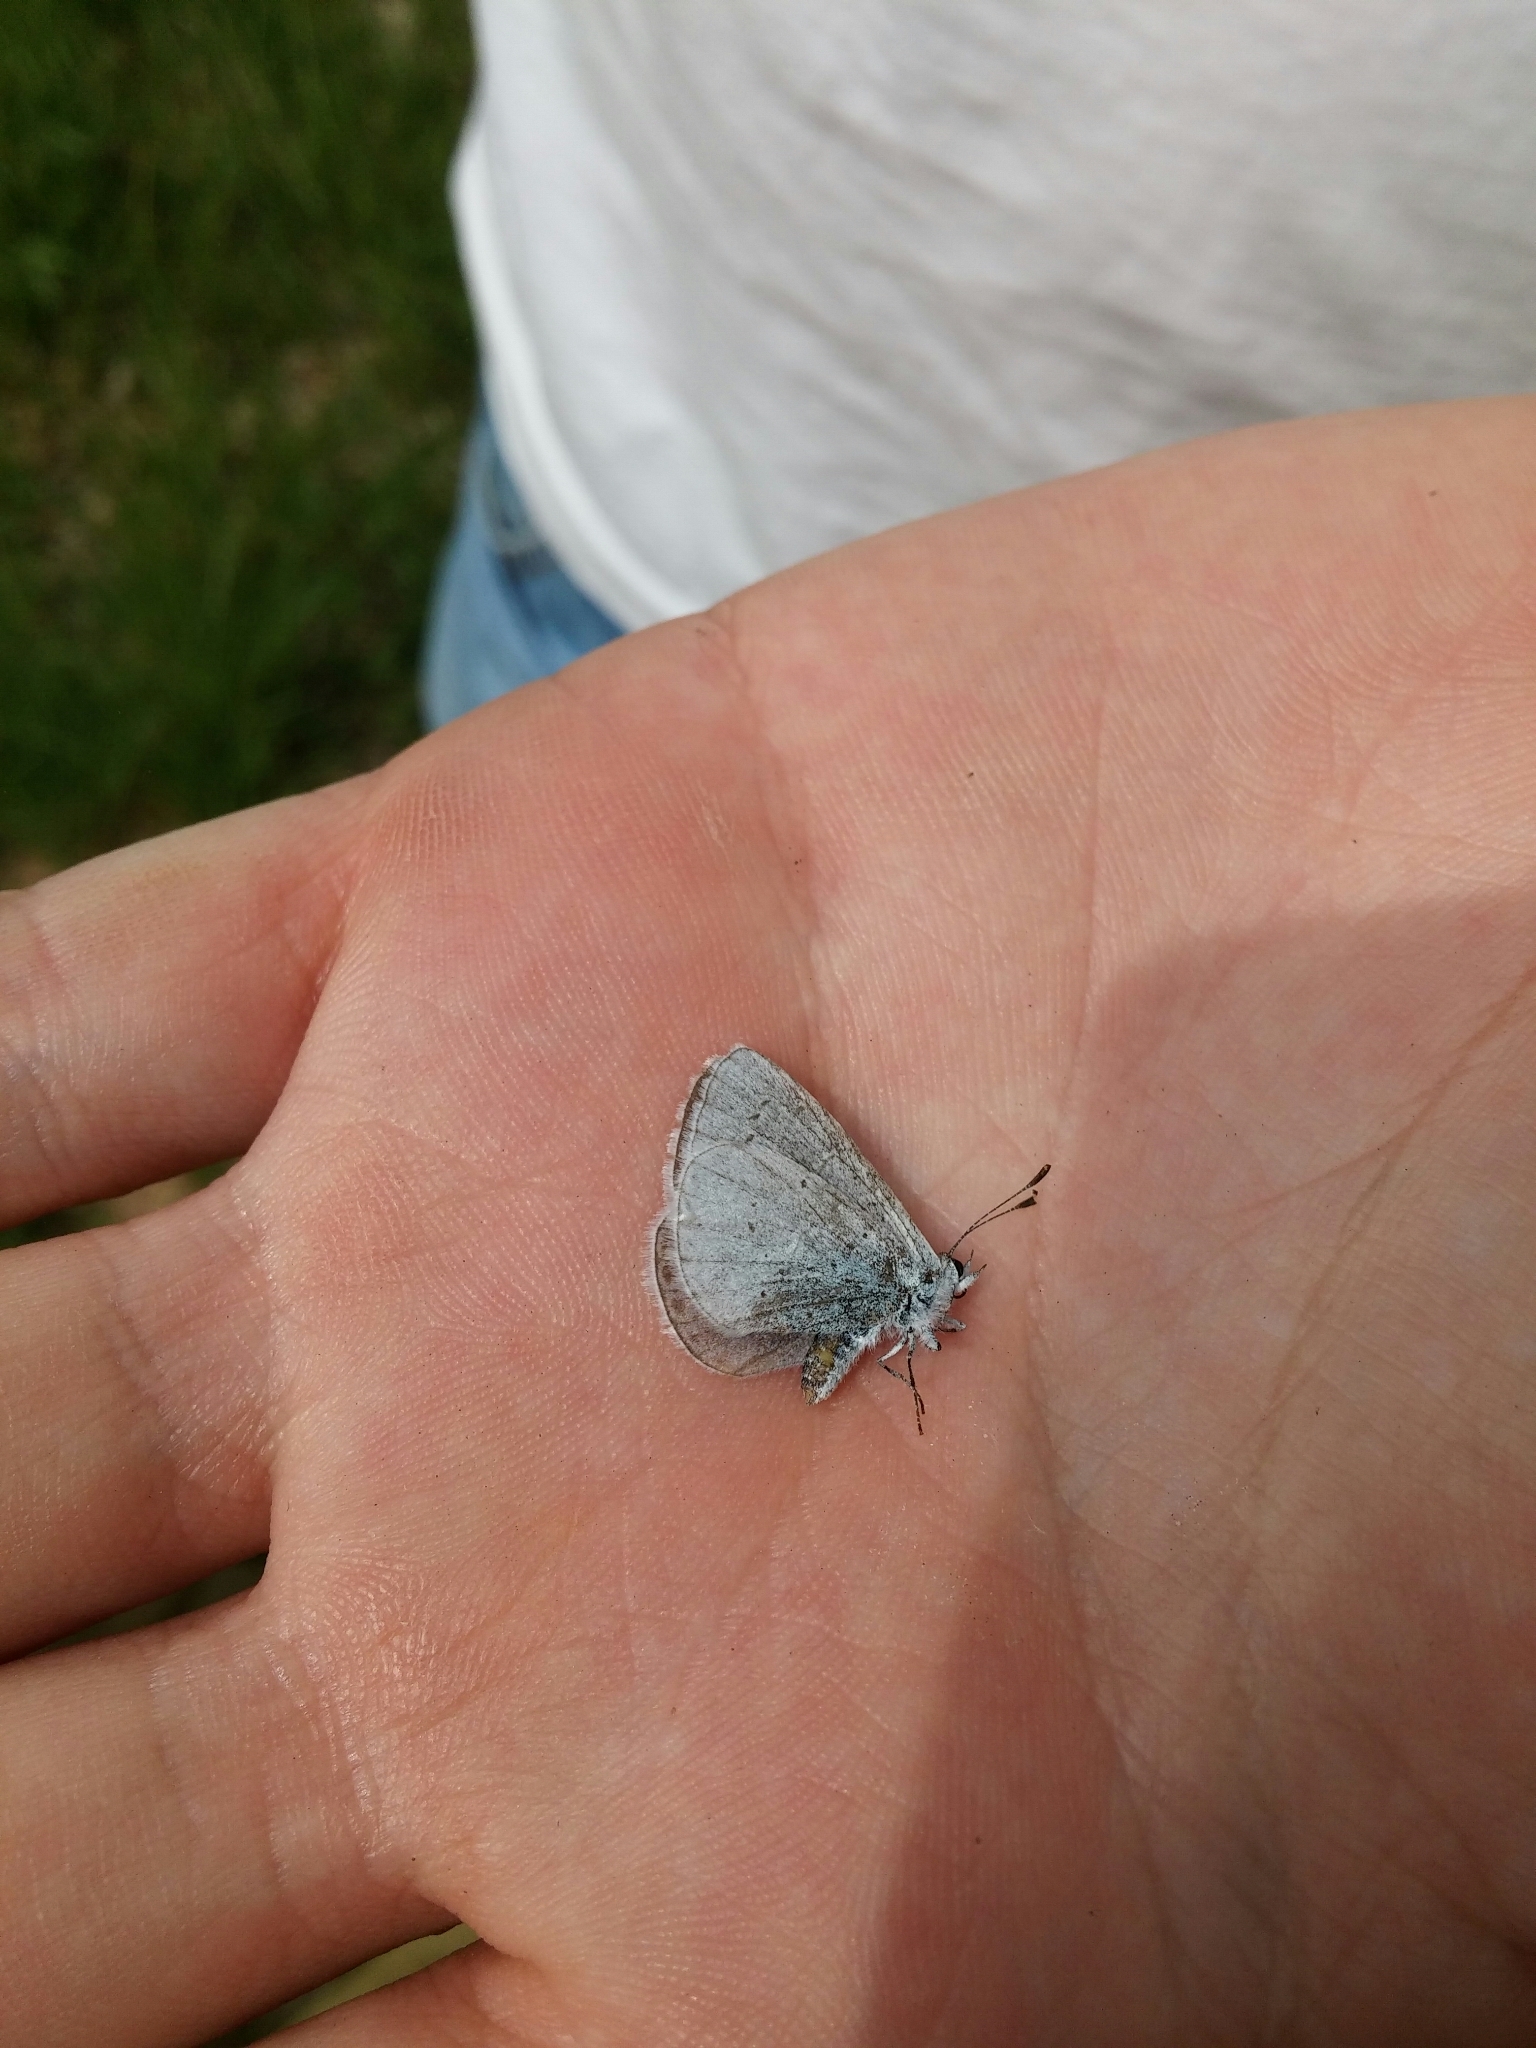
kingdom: Animalia
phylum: Arthropoda
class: Insecta
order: Lepidoptera
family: Lycaenidae
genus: Celastrina
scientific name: Celastrina argiolus
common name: Holly blue
